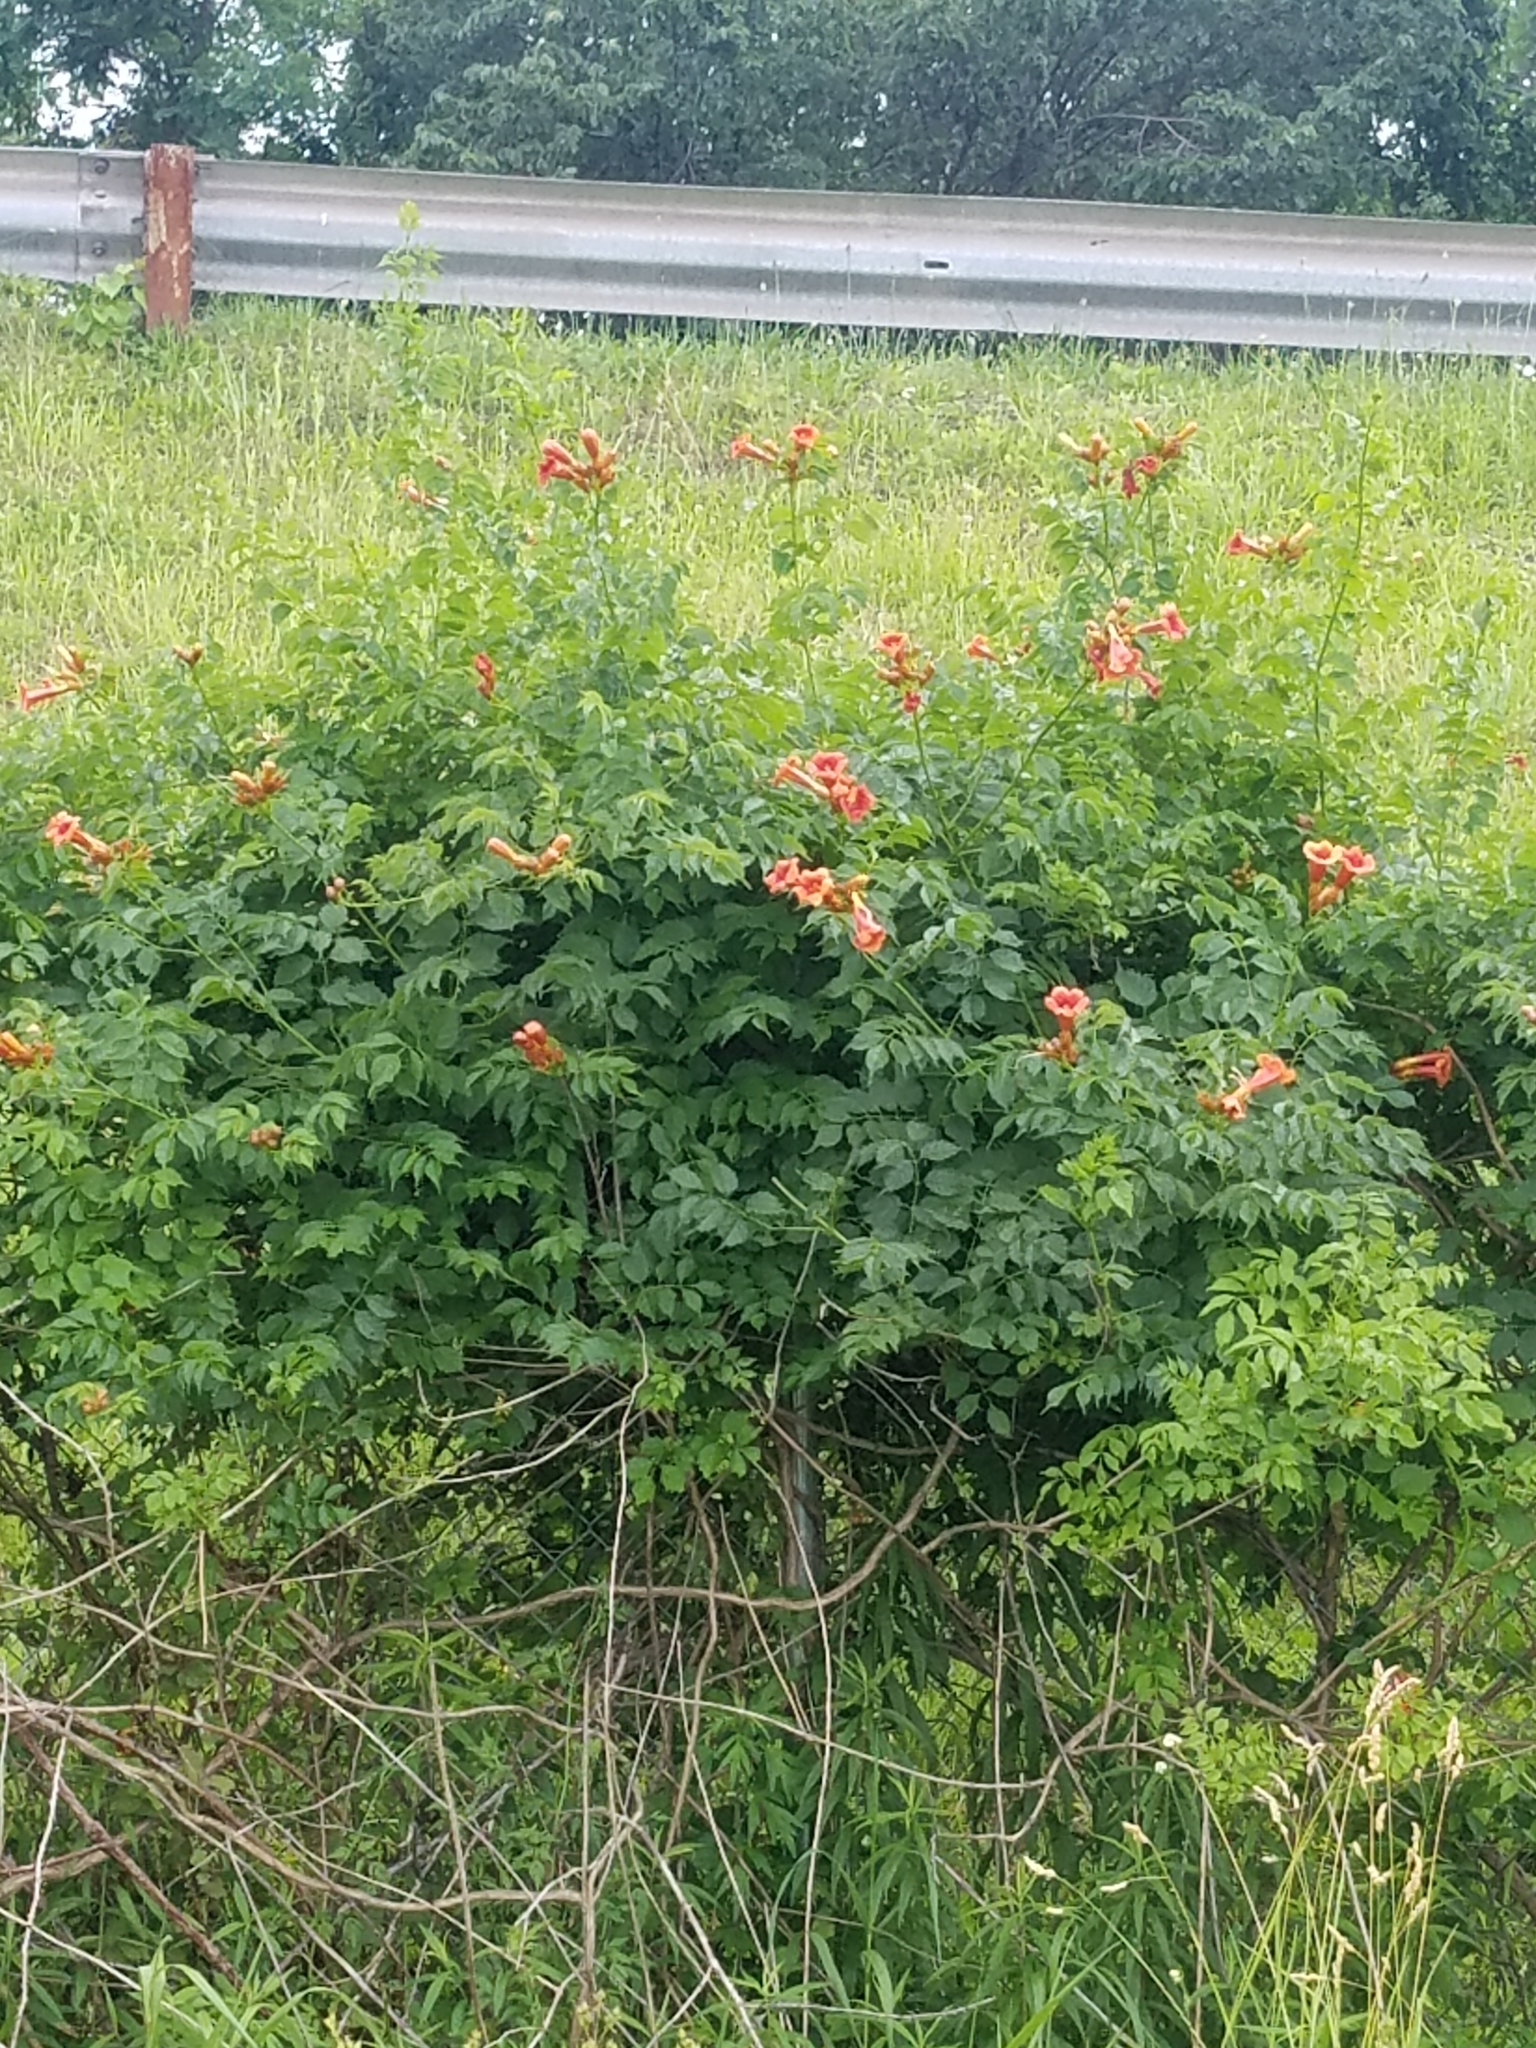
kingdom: Plantae
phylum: Tracheophyta
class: Magnoliopsida
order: Lamiales
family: Bignoniaceae
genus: Campsis
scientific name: Campsis radicans
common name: Trumpet-creeper
